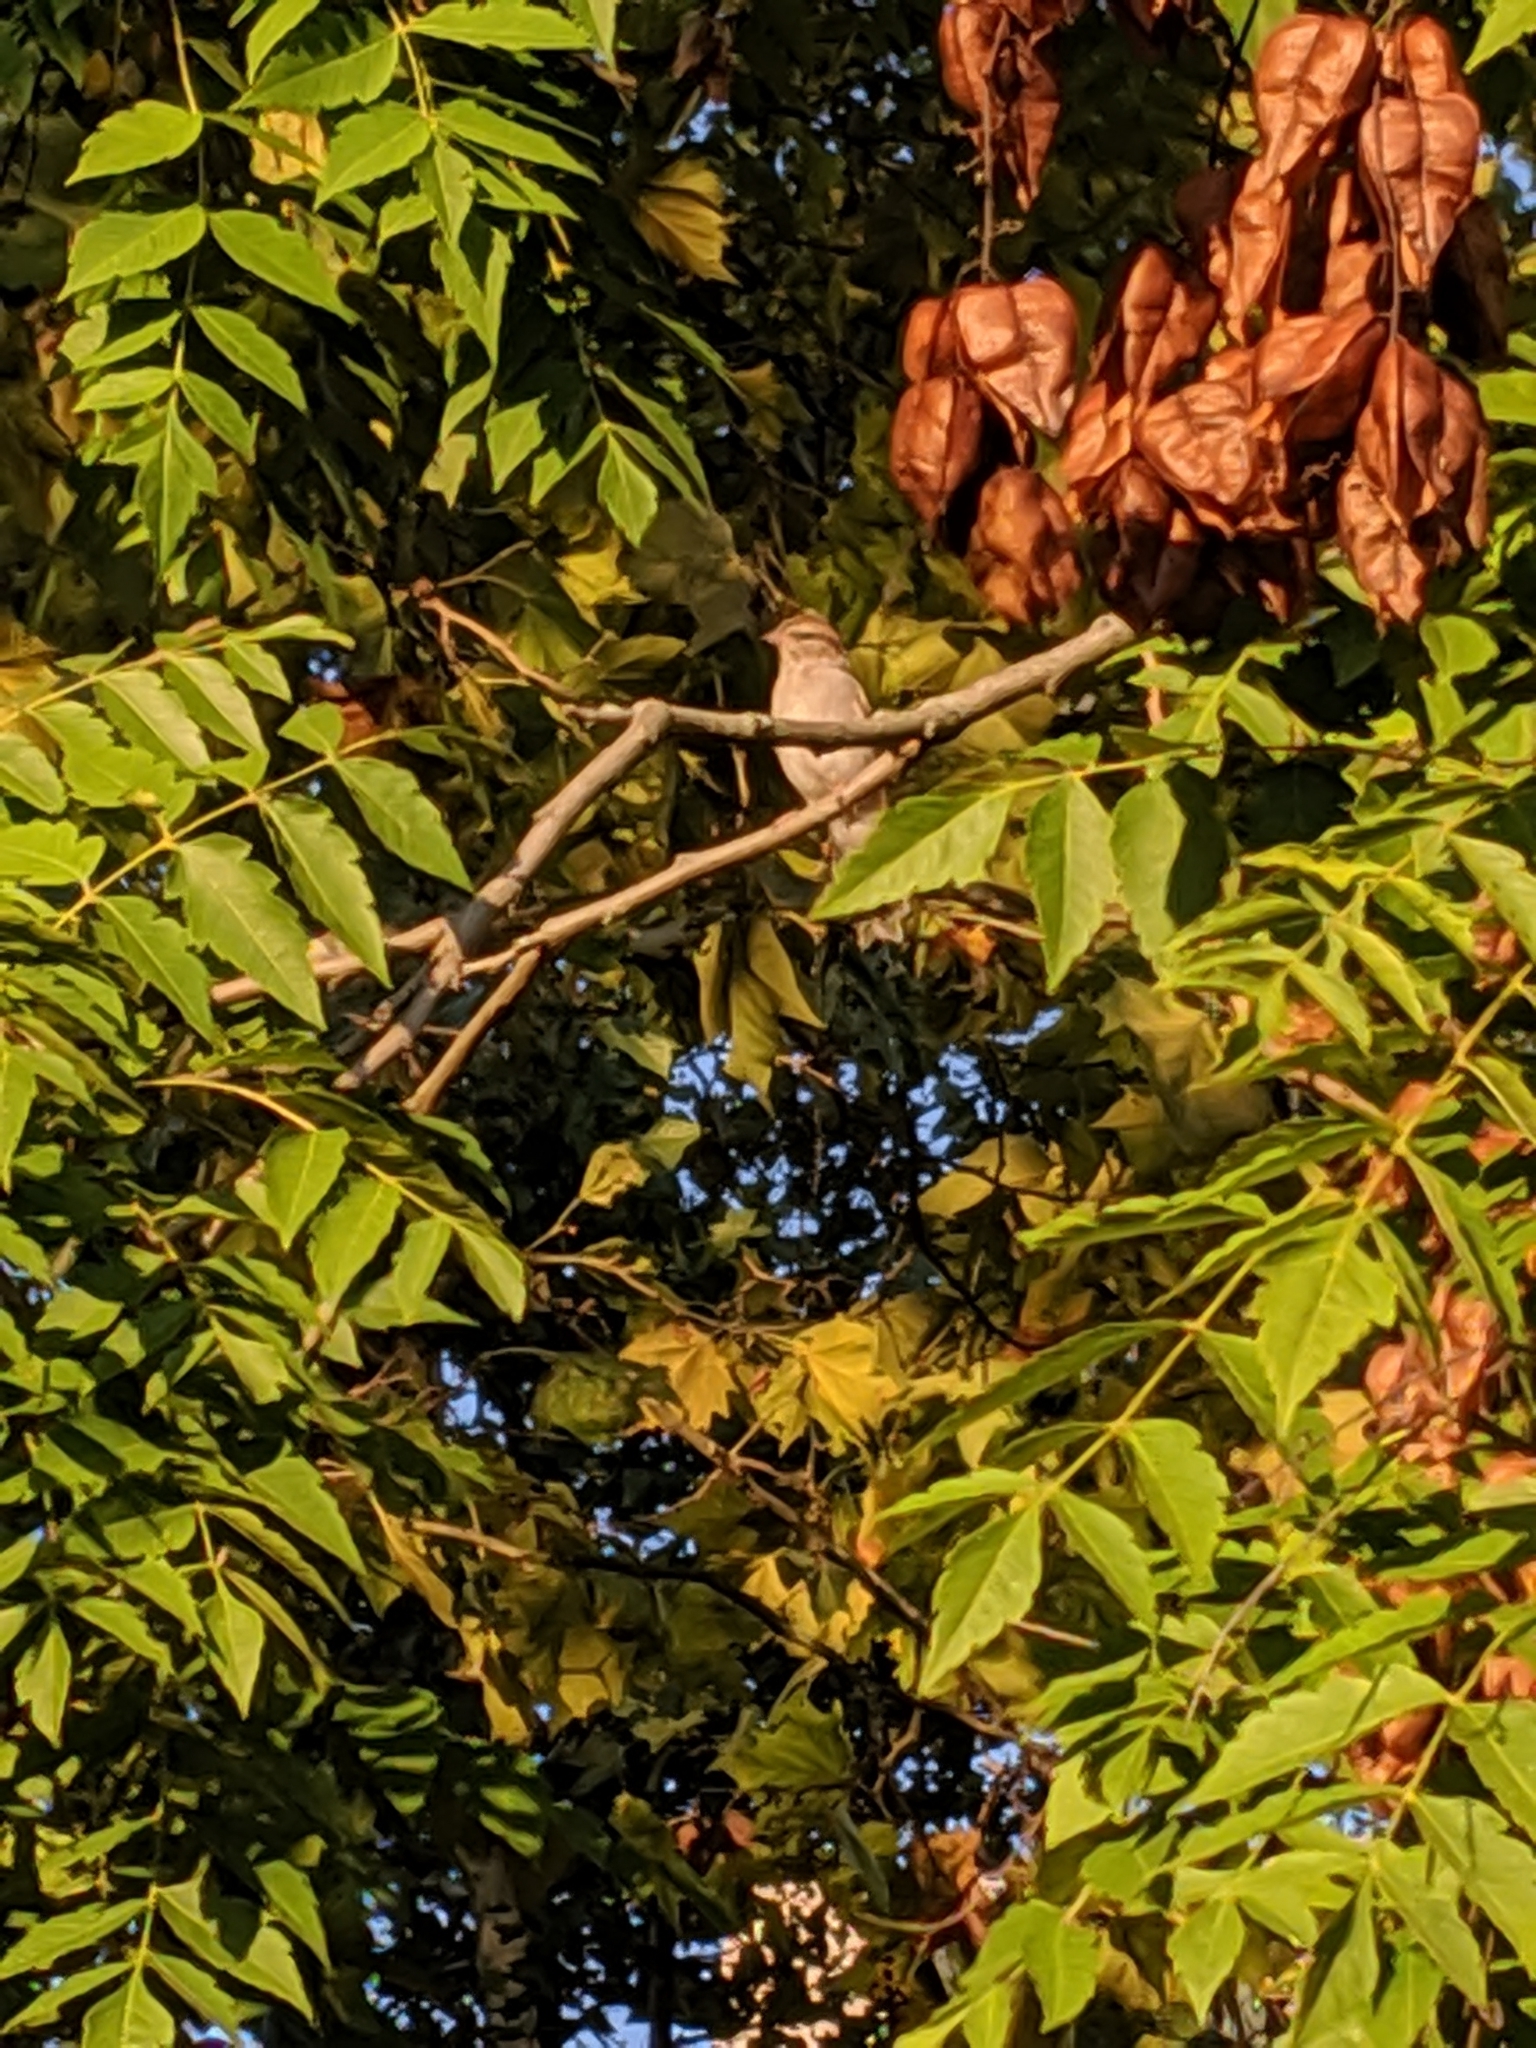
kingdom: Animalia
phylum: Chordata
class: Aves
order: Passeriformes
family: Passerellidae
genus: Spizella
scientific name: Spizella passerina
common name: Chipping sparrow
